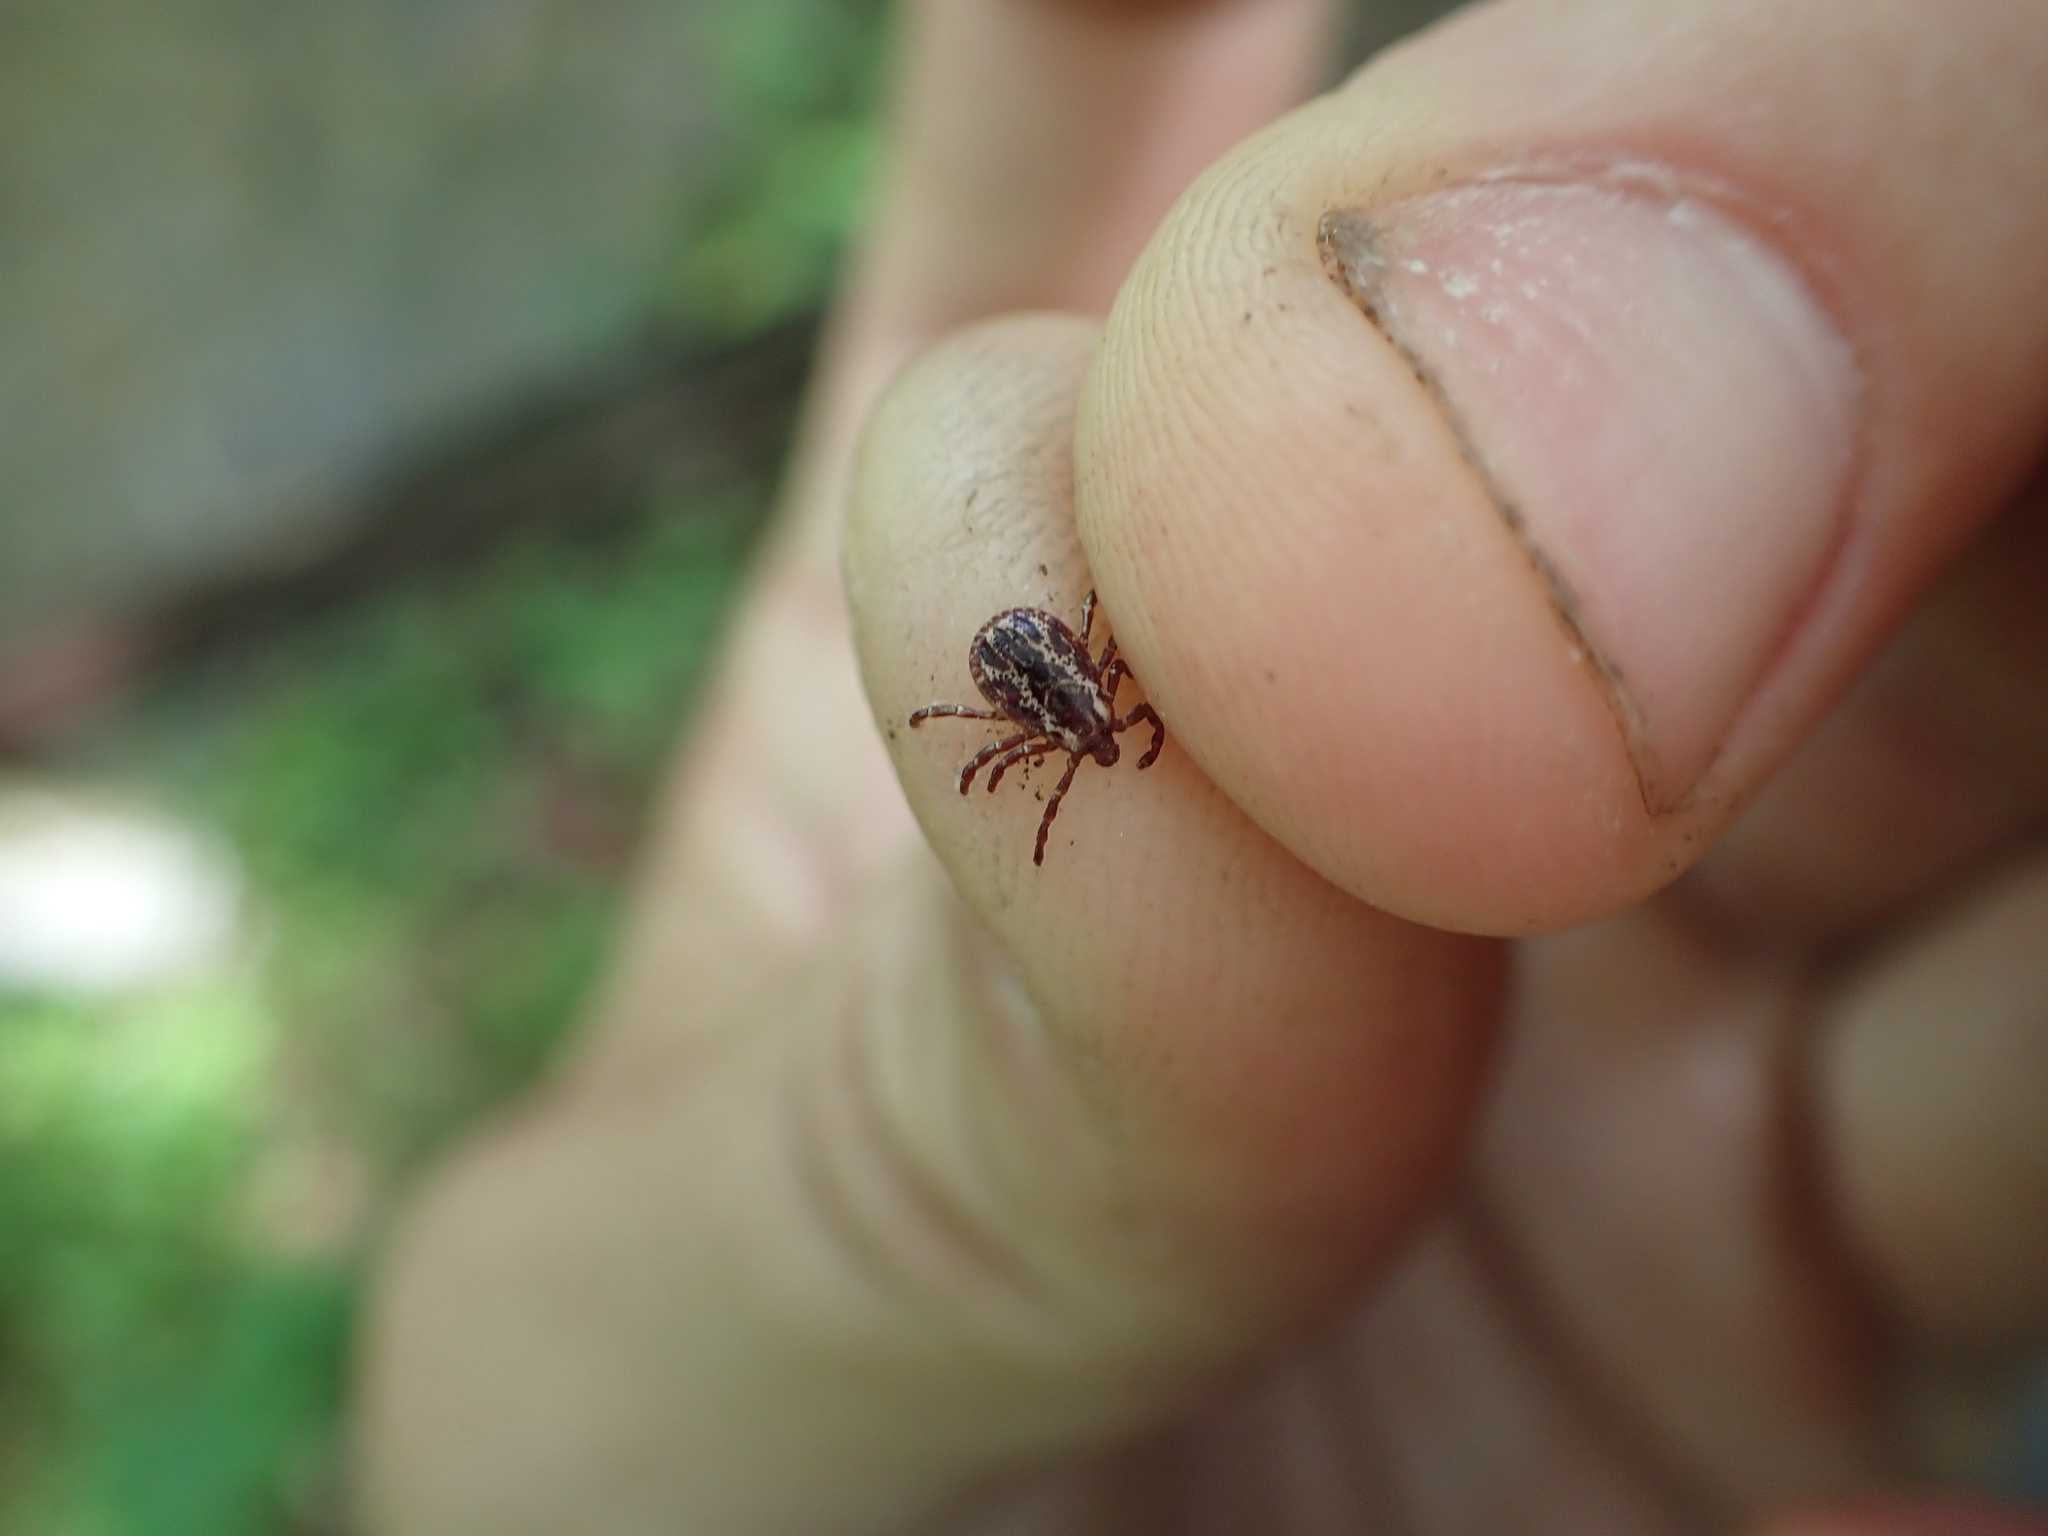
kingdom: Animalia
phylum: Arthropoda
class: Arachnida
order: Ixodida
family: Ixodidae
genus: Dermacentor
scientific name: Dermacentor variabilis
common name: American dog tick
